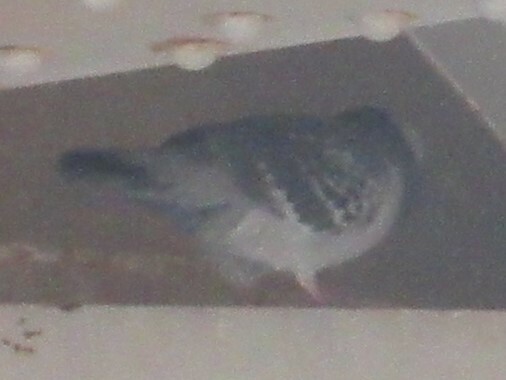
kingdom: Animalia
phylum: Chordata
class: Aves
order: Columbiformes
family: Columbidae
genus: Columba
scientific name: Columba livia
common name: Rock pigeon
